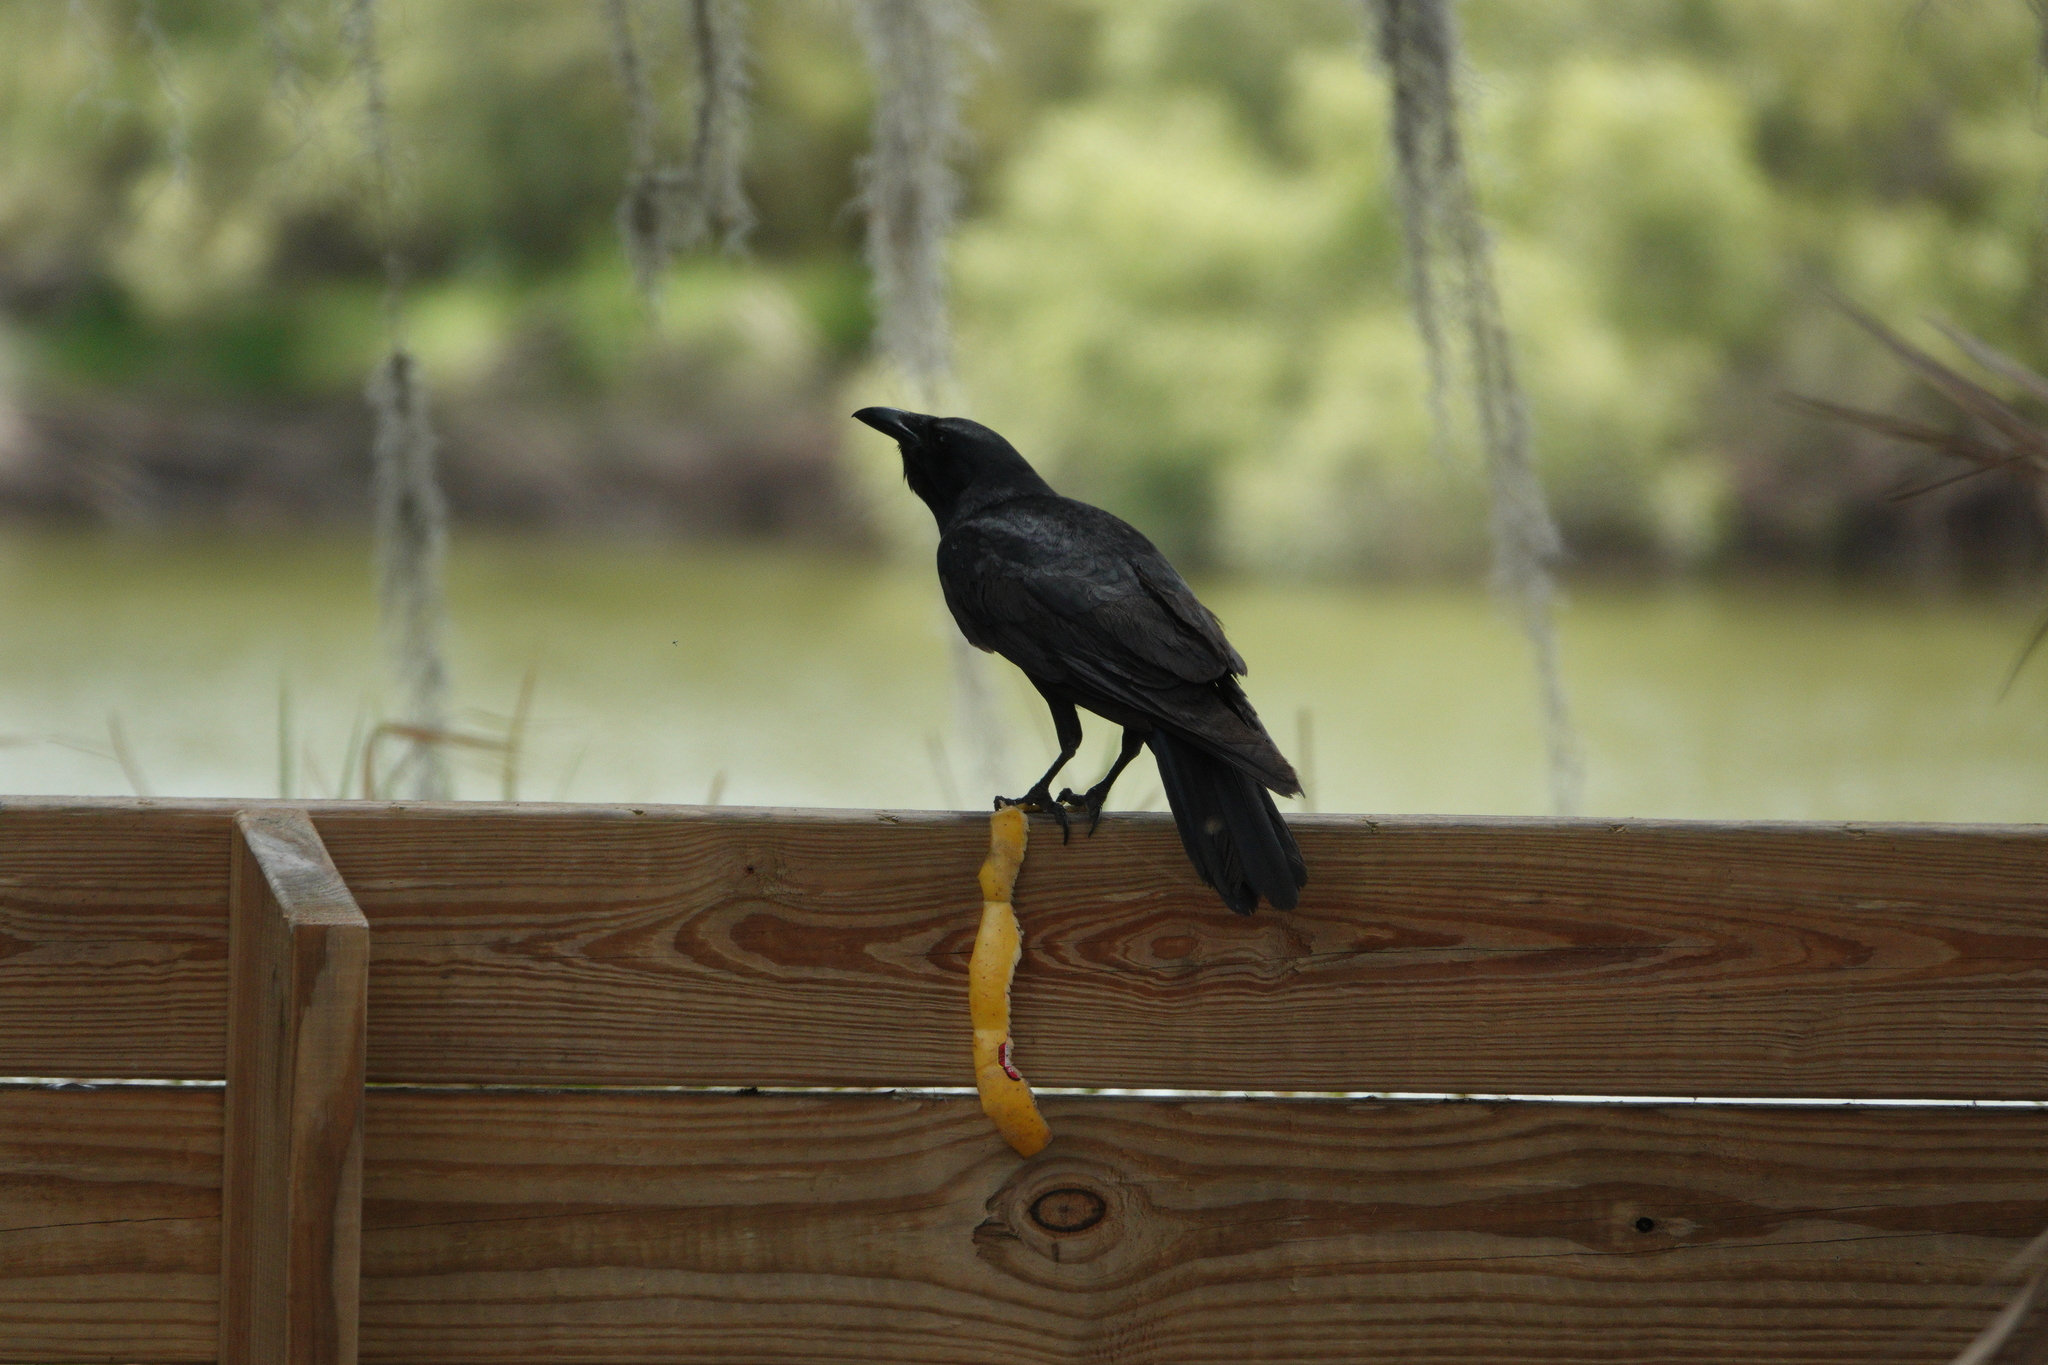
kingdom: Animalia
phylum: Chordata
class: Aves
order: Passeriformes
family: Corvidae
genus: Corvus
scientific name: Corvus ossifragus
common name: Fish crow
